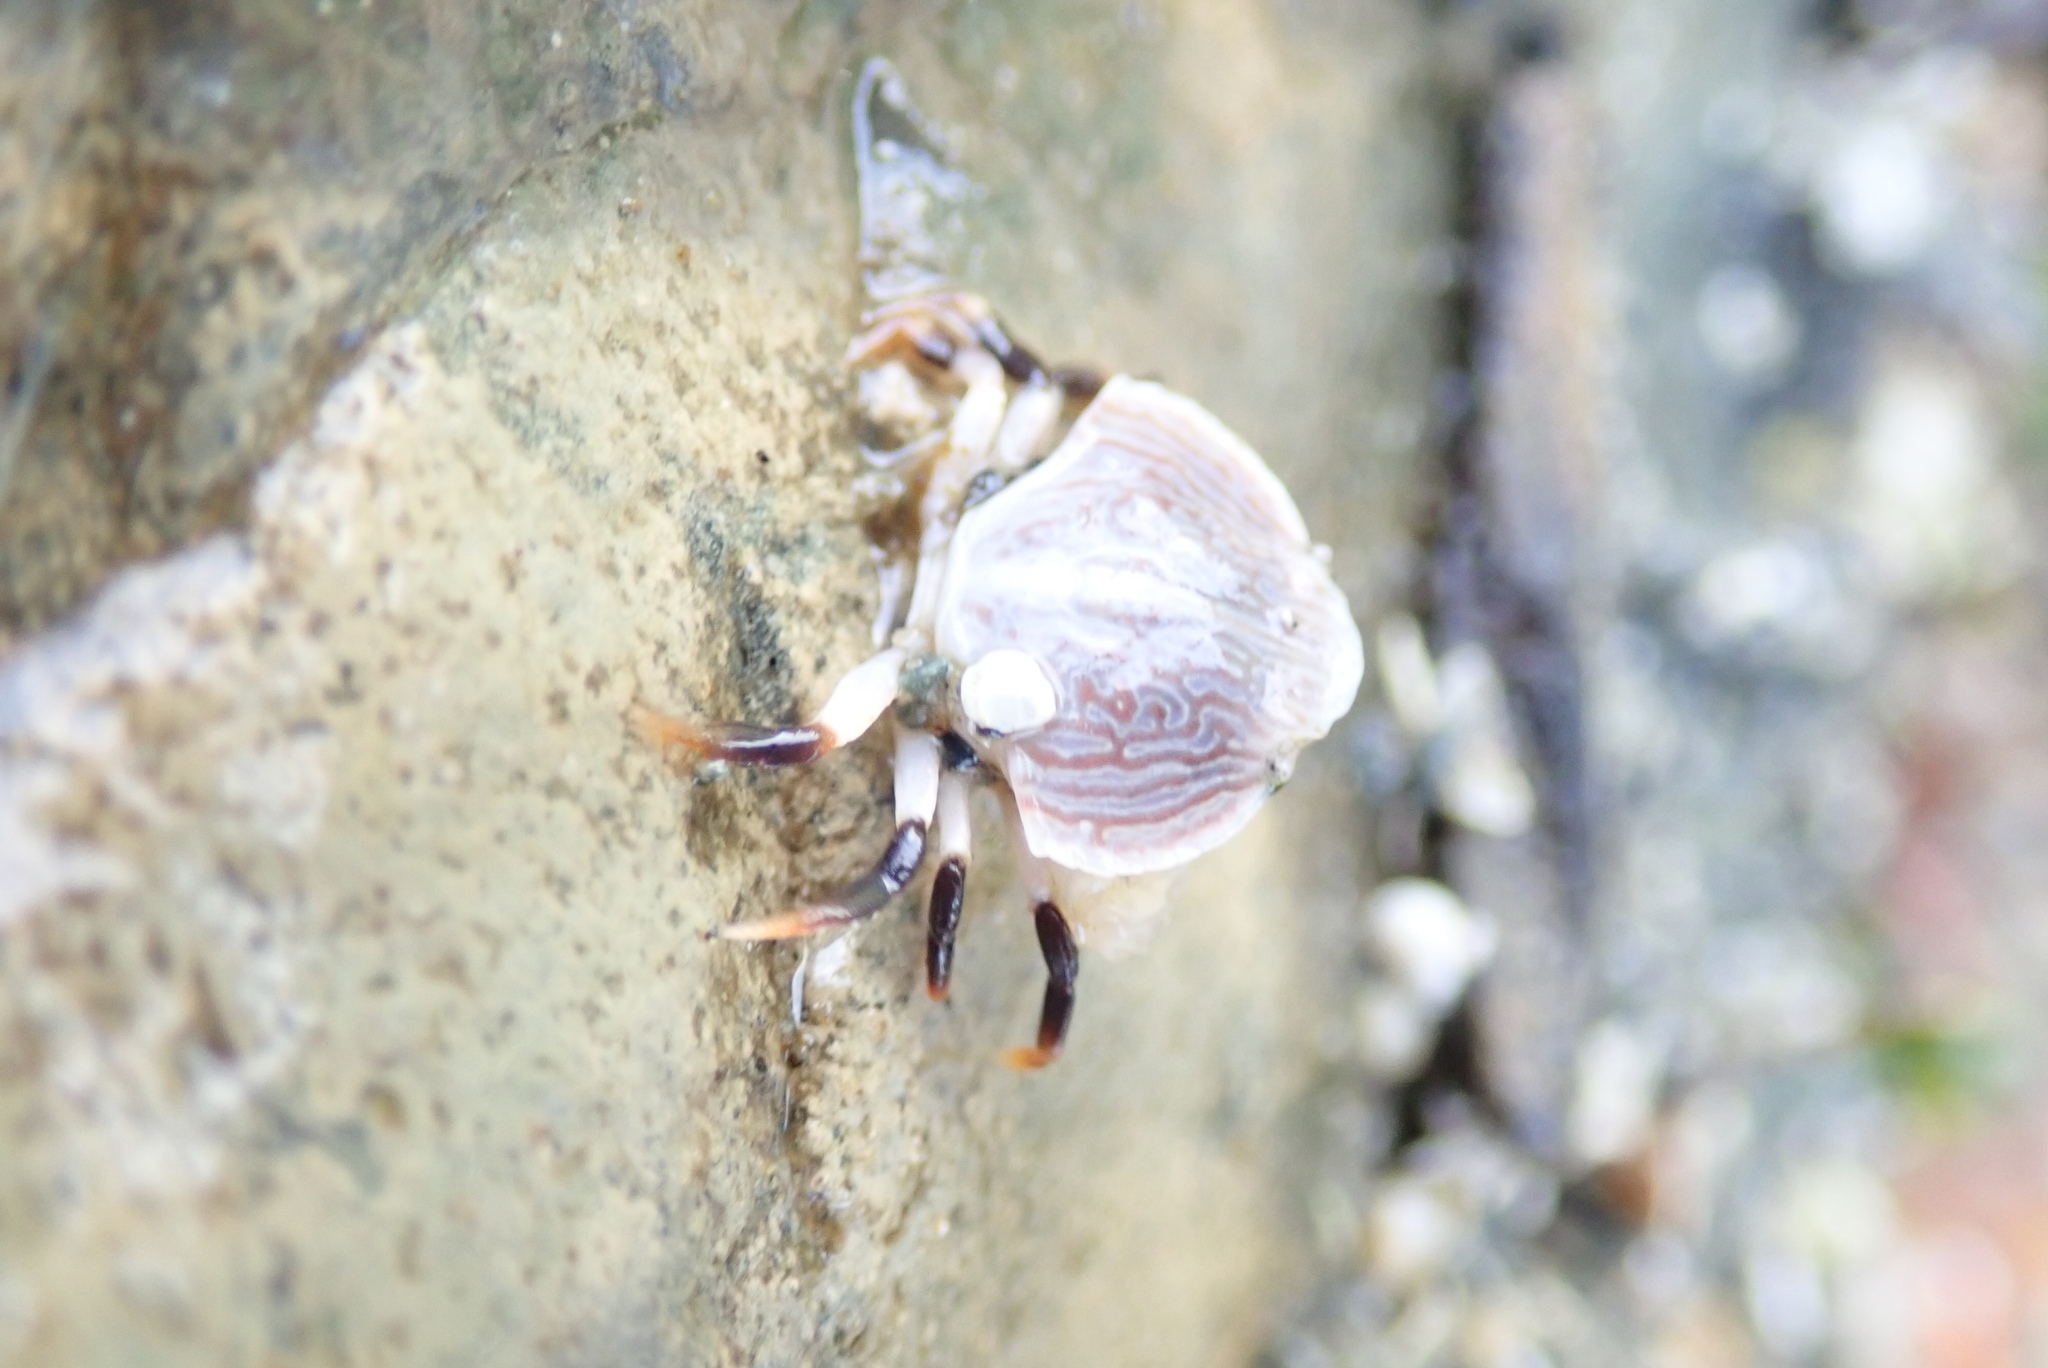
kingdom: Animalia
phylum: Arthropoda
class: Malacostraca
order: Decapoda
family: Cancridae
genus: Cancer
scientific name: Cancer productus
